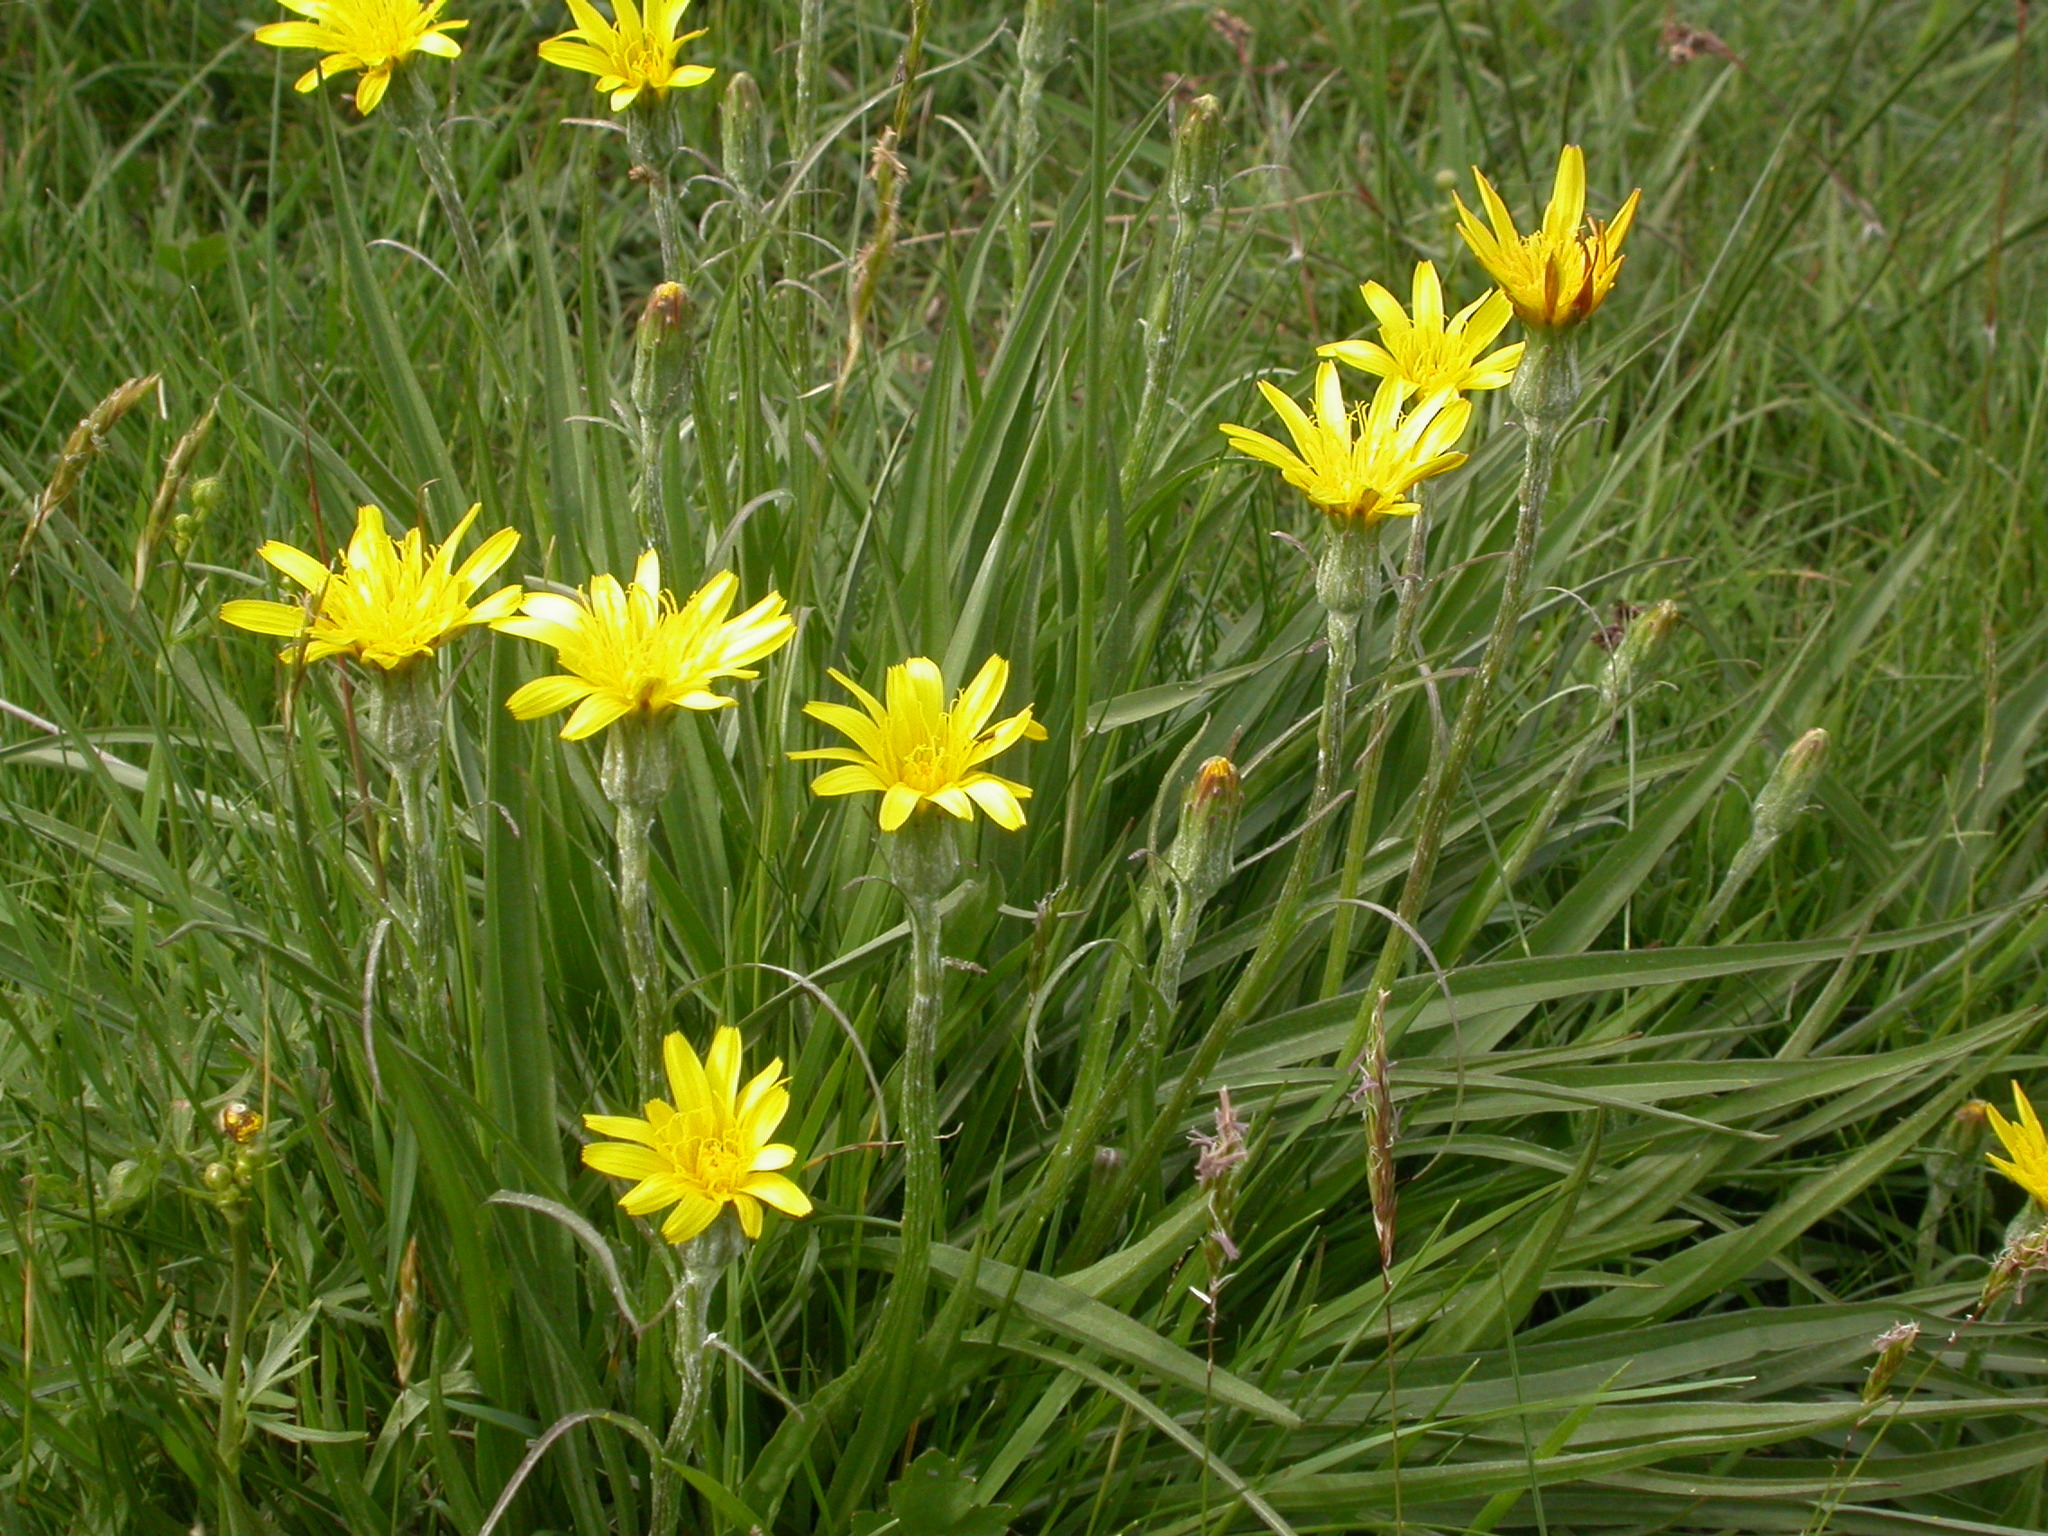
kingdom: Plantae
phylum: Tracheophyta
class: Magnoliopsida
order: Asterales
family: Asteraceae
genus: Scorzonera
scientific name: Scorzonera humilis
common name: Viper's-grass
